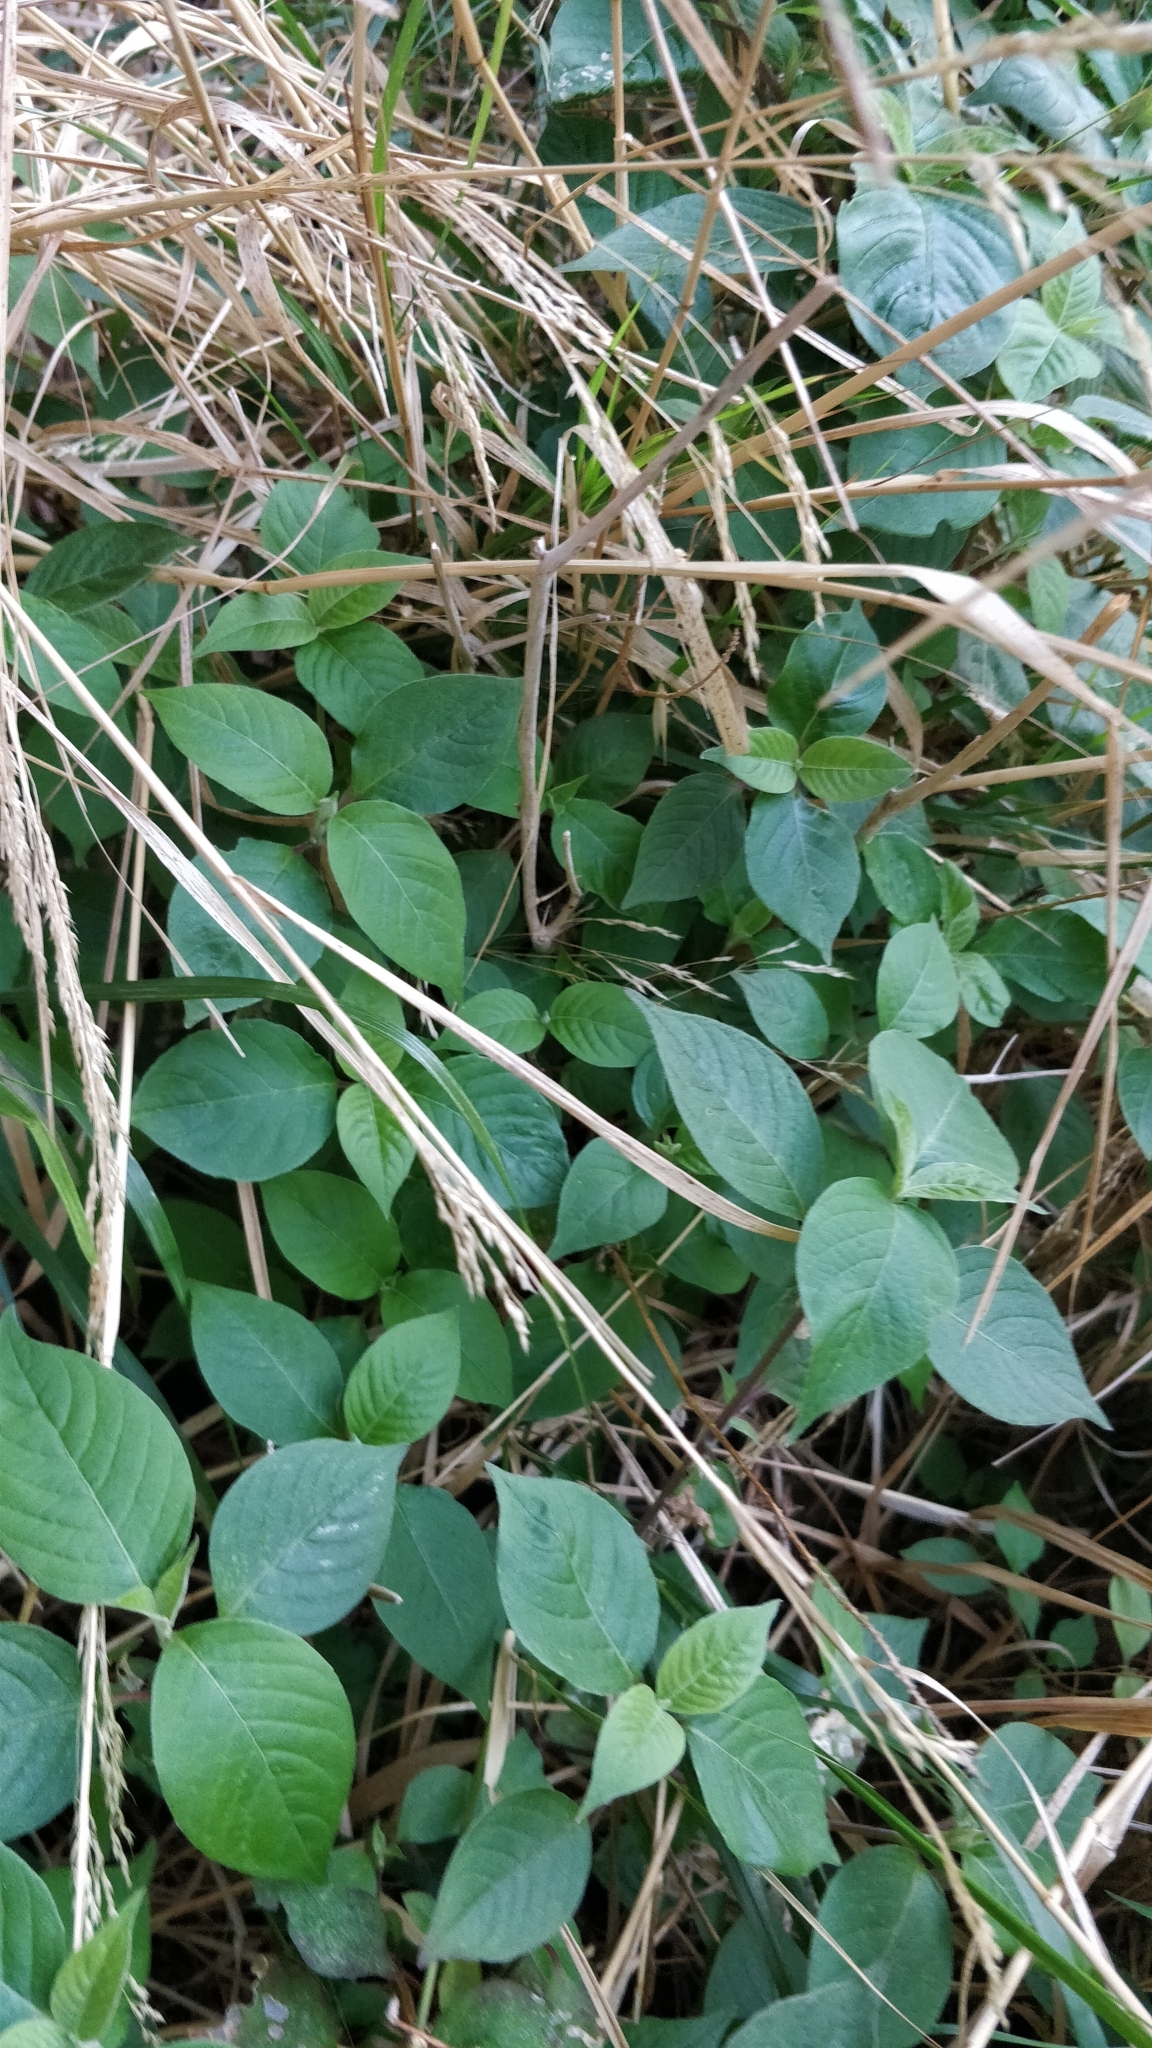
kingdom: Plantae
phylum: Tracheophyta
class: Magnoliopsida
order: Caryophyllales
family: Amaranthaceae
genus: Achyranthes
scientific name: Achyranthes sicula
